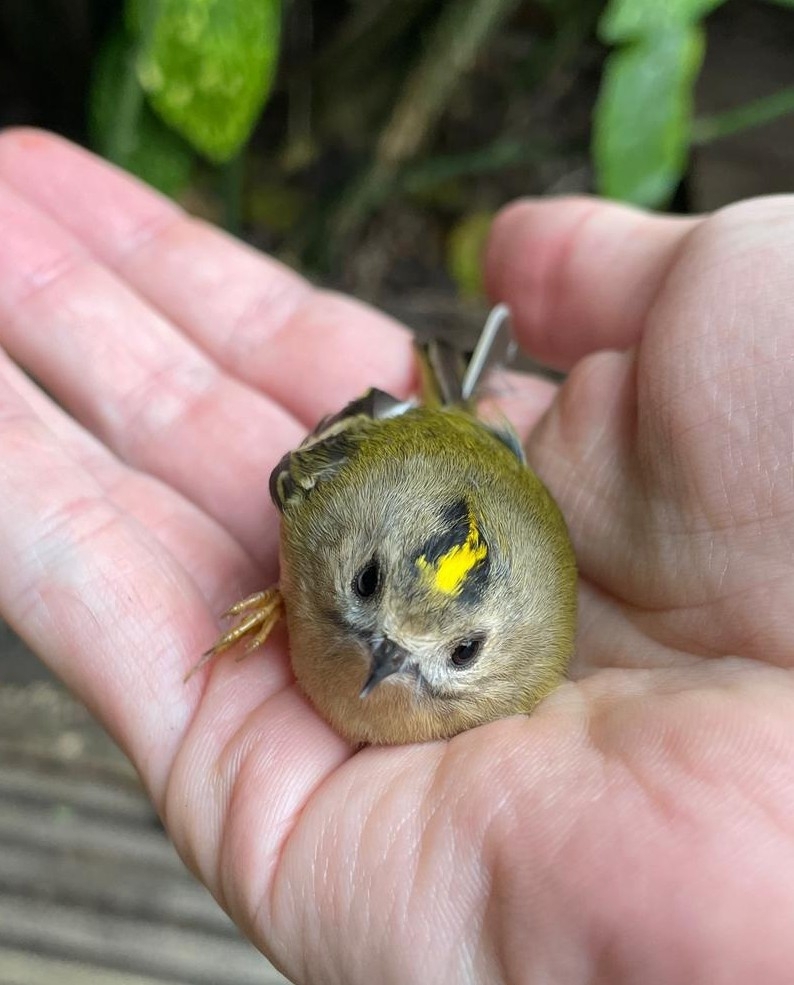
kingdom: Animalia
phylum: Chordata
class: Aves
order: Passeriformes
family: Regulidae
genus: Regulus
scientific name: Regulus regulus
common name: Goldcrest
